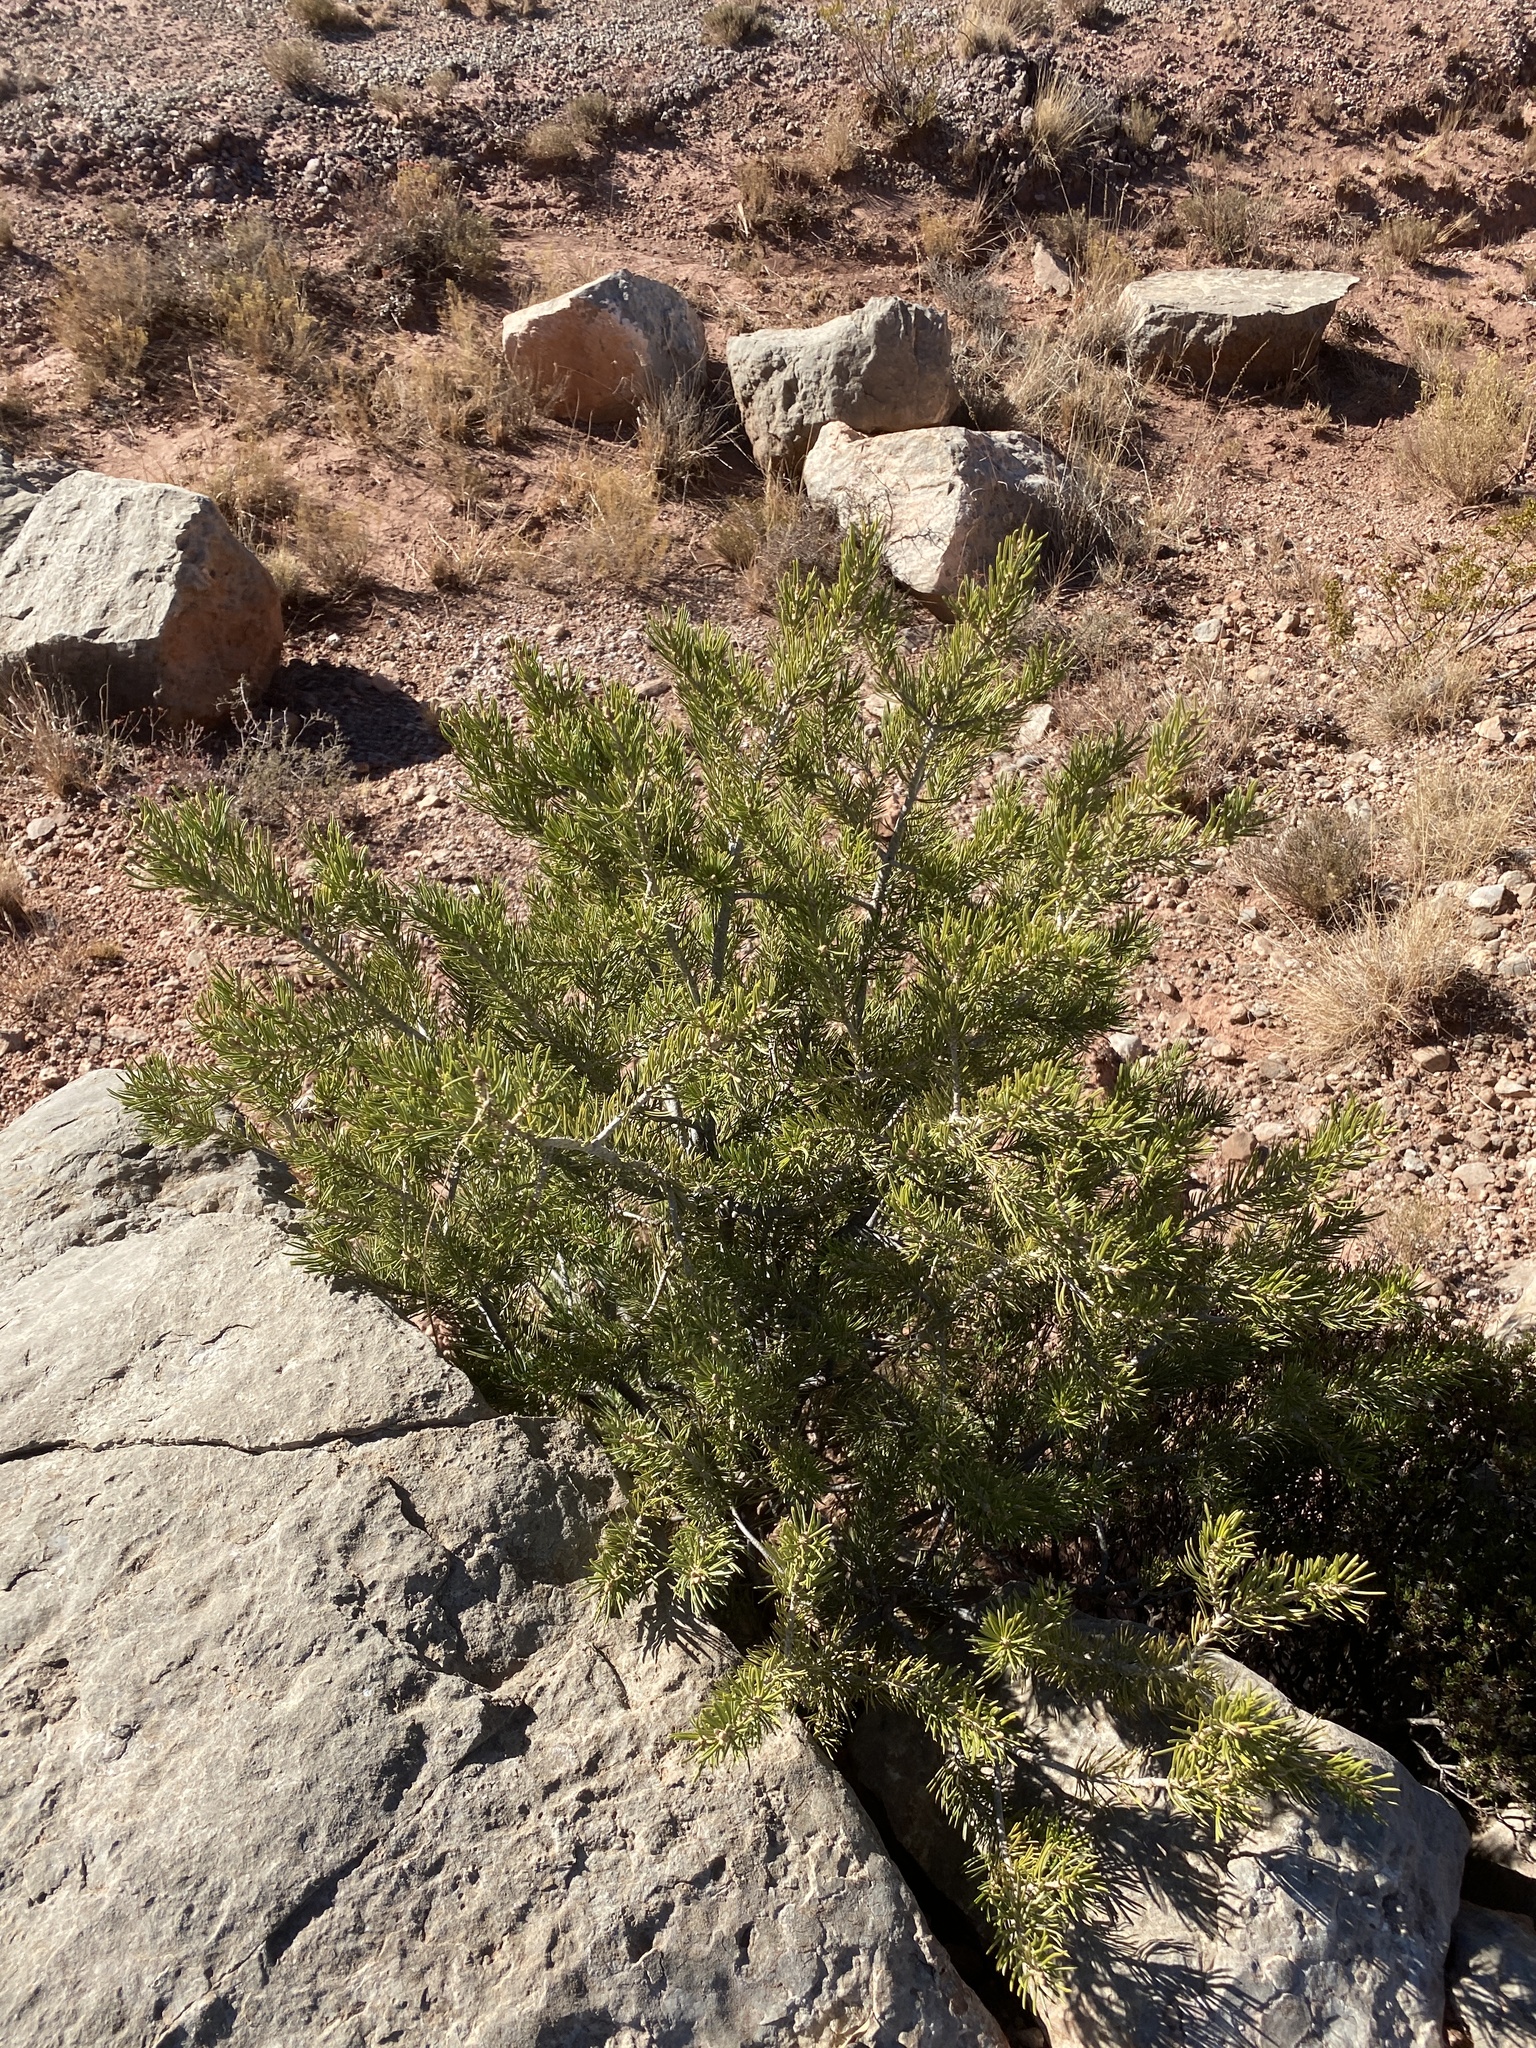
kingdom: Plantae
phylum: Tracheophyta
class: Pinopsida
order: Pinales
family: Pinaceae
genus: Pinus
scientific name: Pinus edulis
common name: Colorado pinyon
